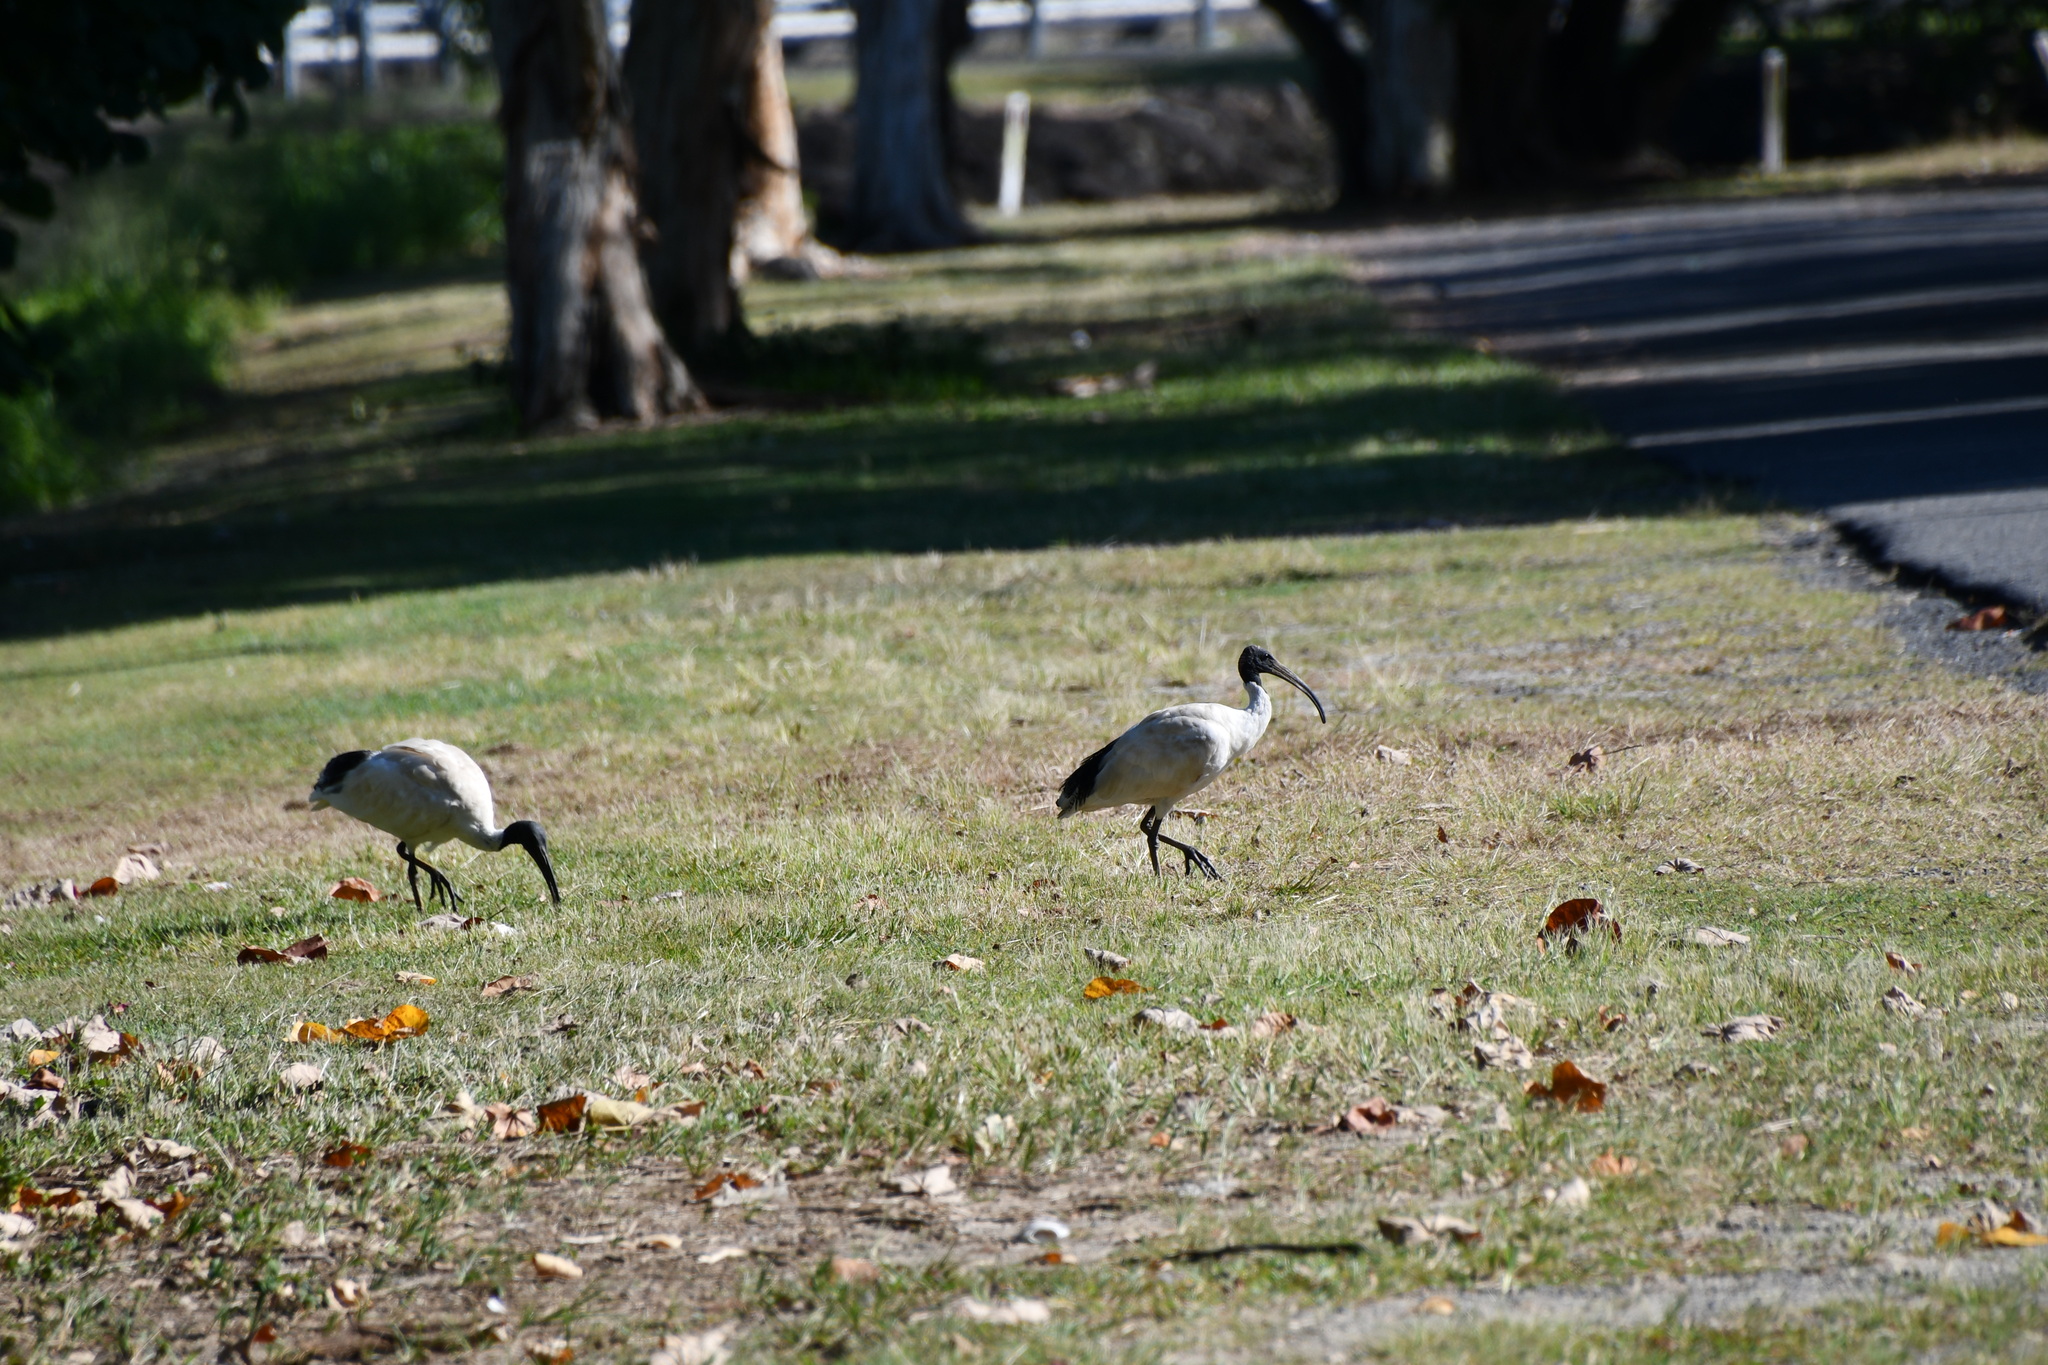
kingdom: Animalia
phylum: Chordata
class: Aves
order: Pelecaniformes
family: Threskiornithidae
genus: Threskiornis
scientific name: Threskiornis molucca
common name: Australian white ibis
